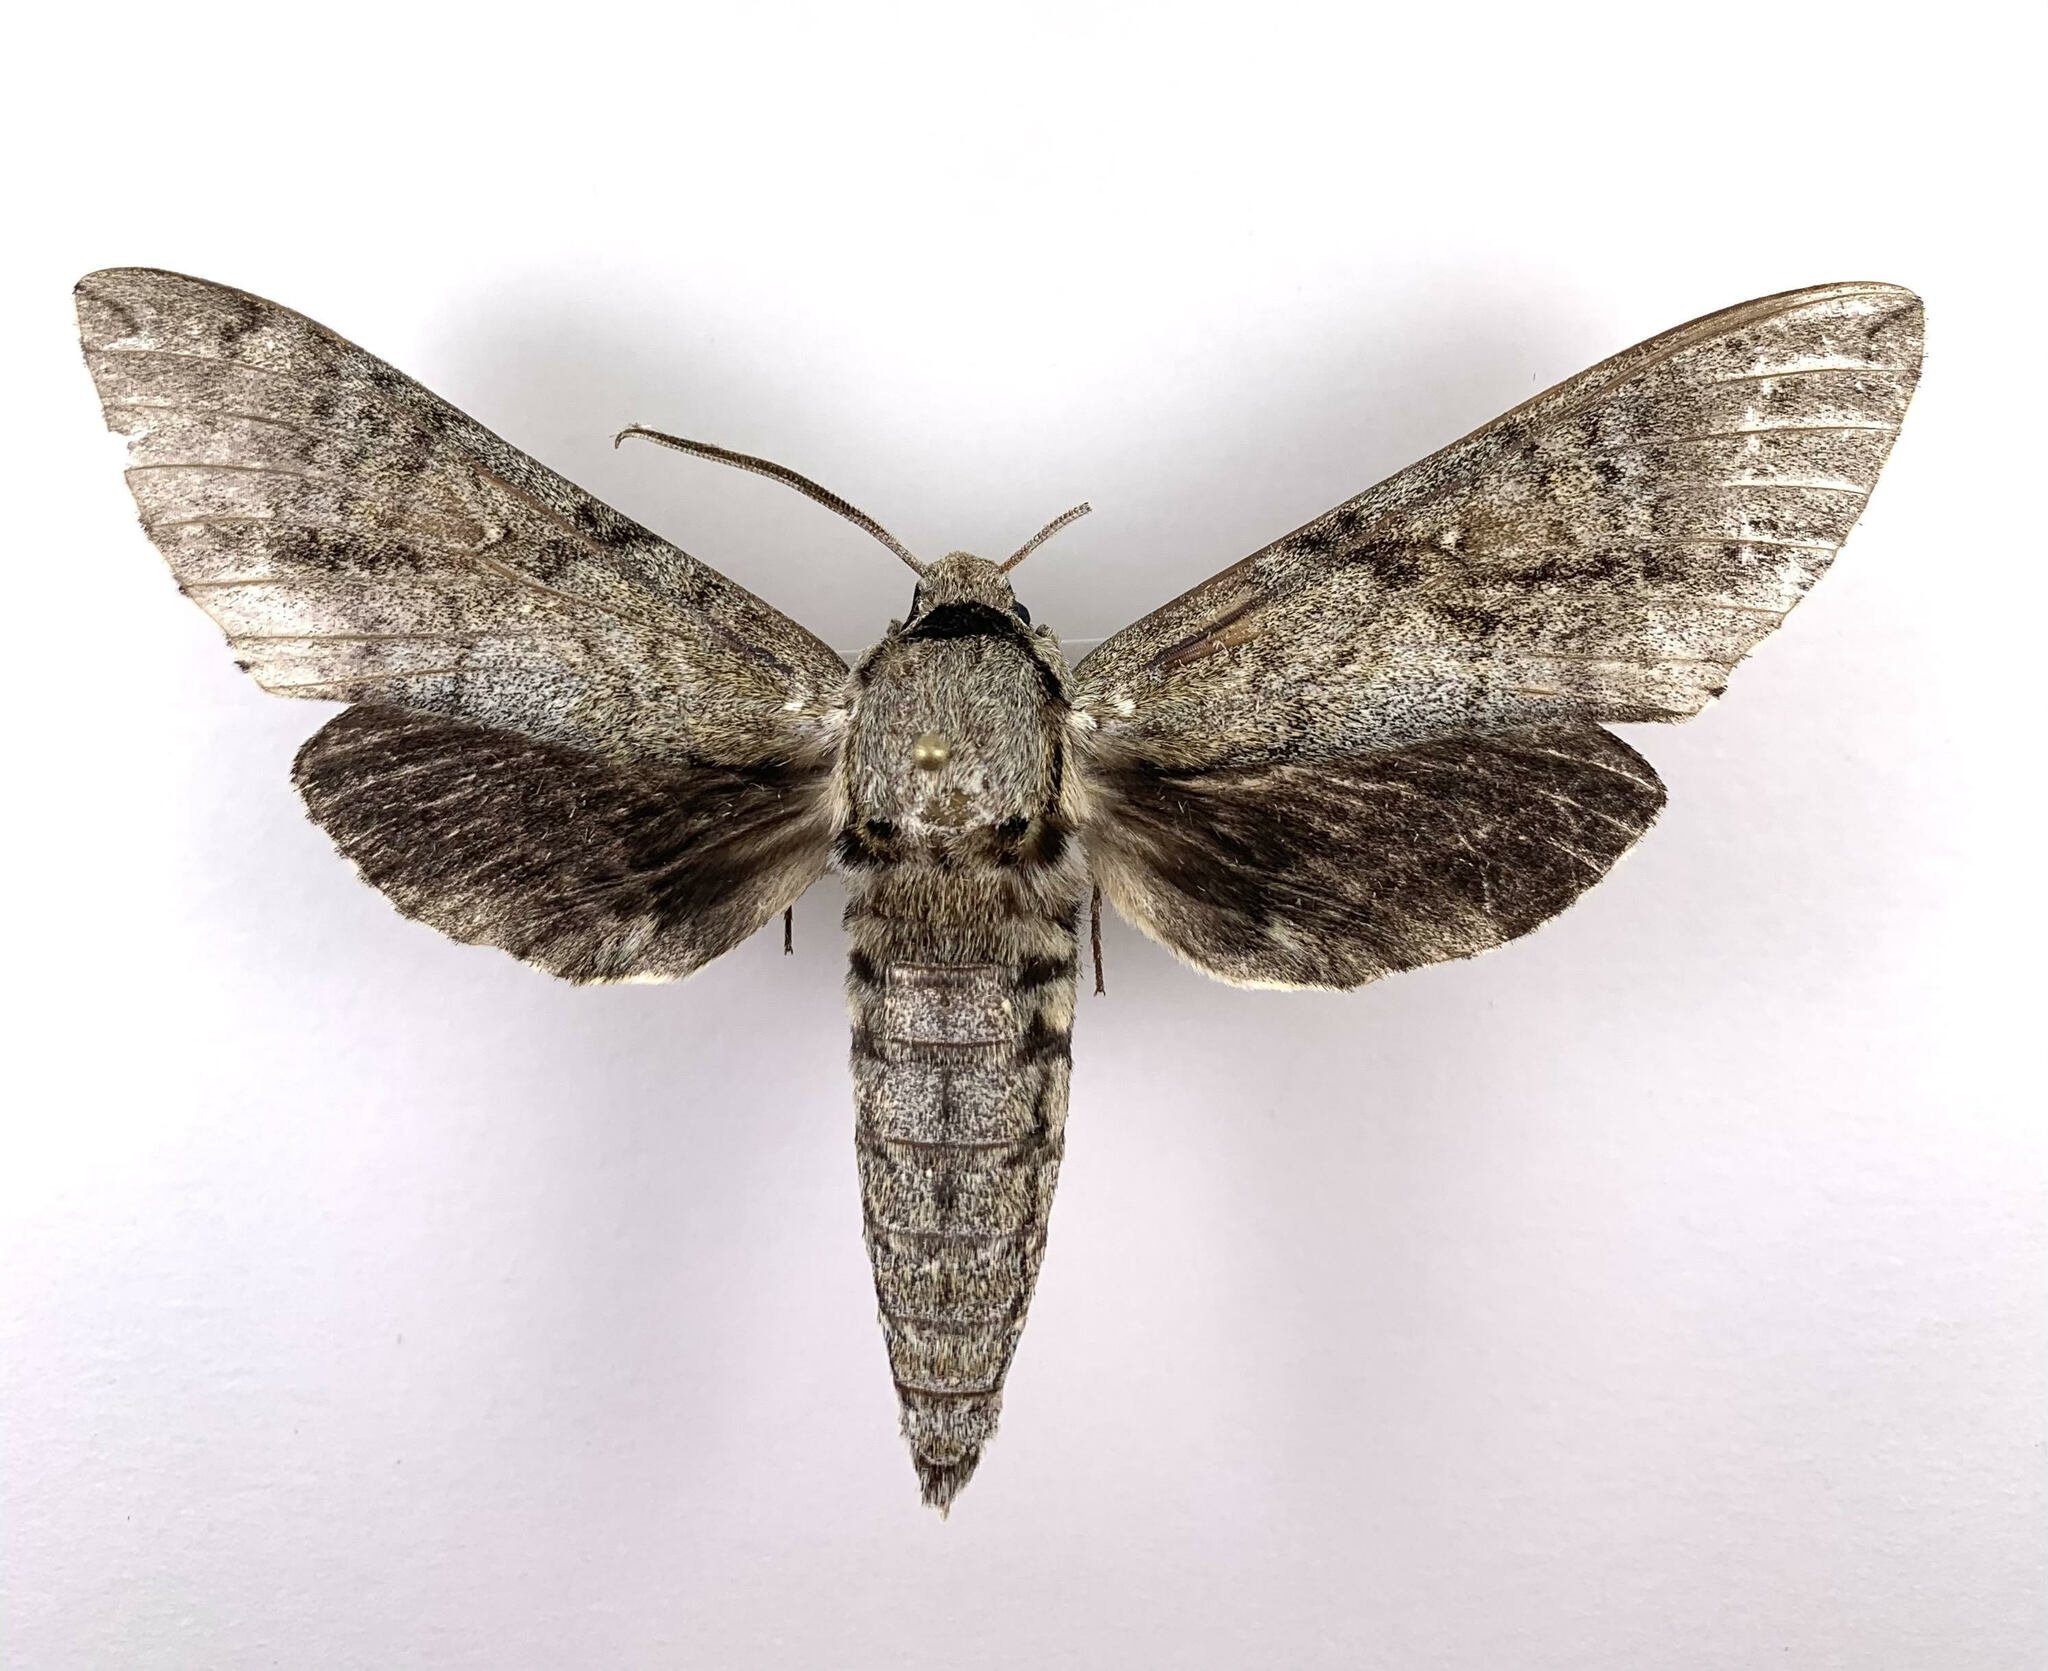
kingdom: Animalia
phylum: Arthropoda
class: Insecta
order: Lepidoptera
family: Sphingidae
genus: Manduca
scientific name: Manduca jasminearum
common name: Ash sphinx
